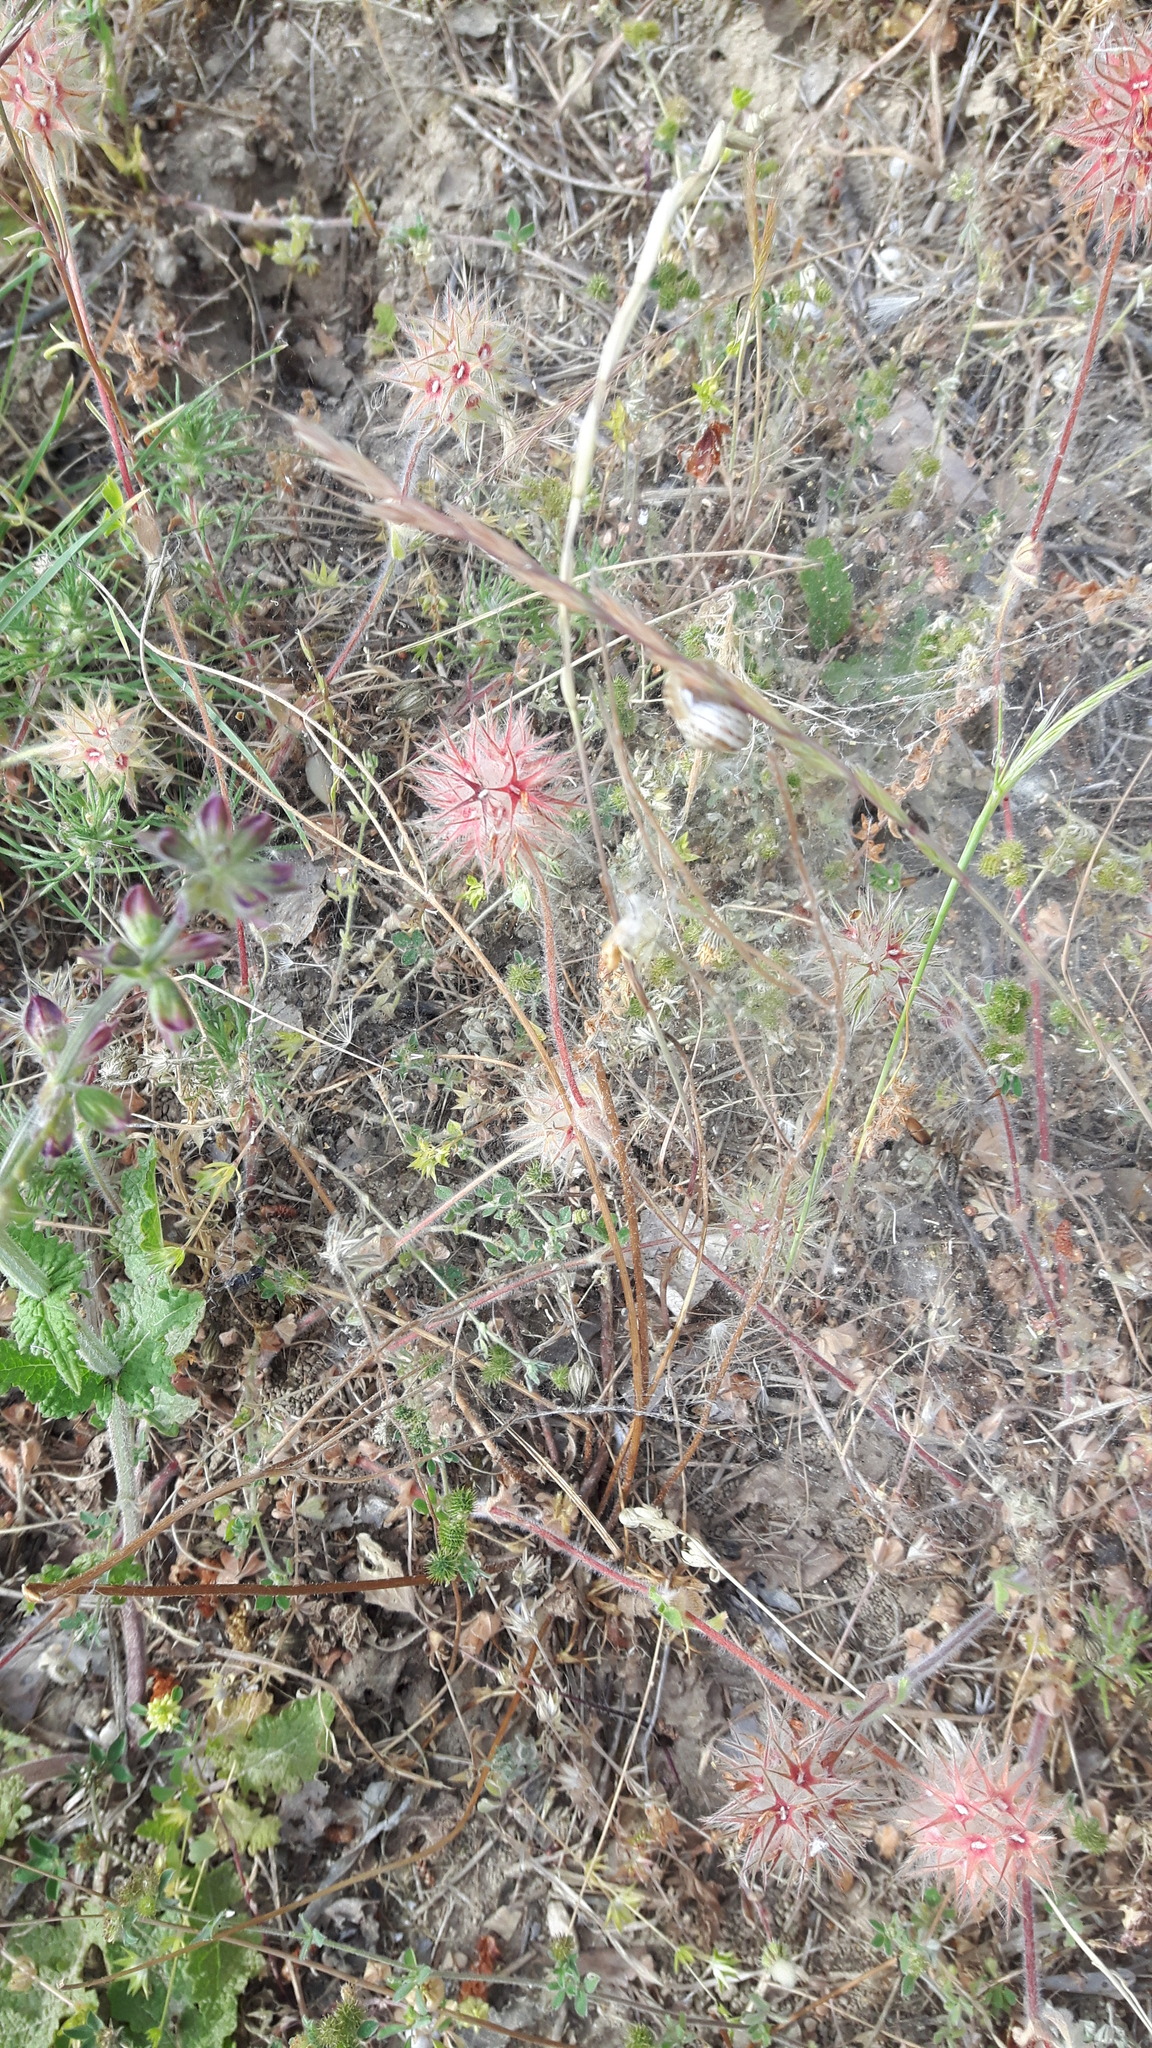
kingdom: Plantae
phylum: Tracheophyta
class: Magnoliopsida
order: Fabales
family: Fabaceae
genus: Trifolium
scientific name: Trifolium stellatum
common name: Starry clover
